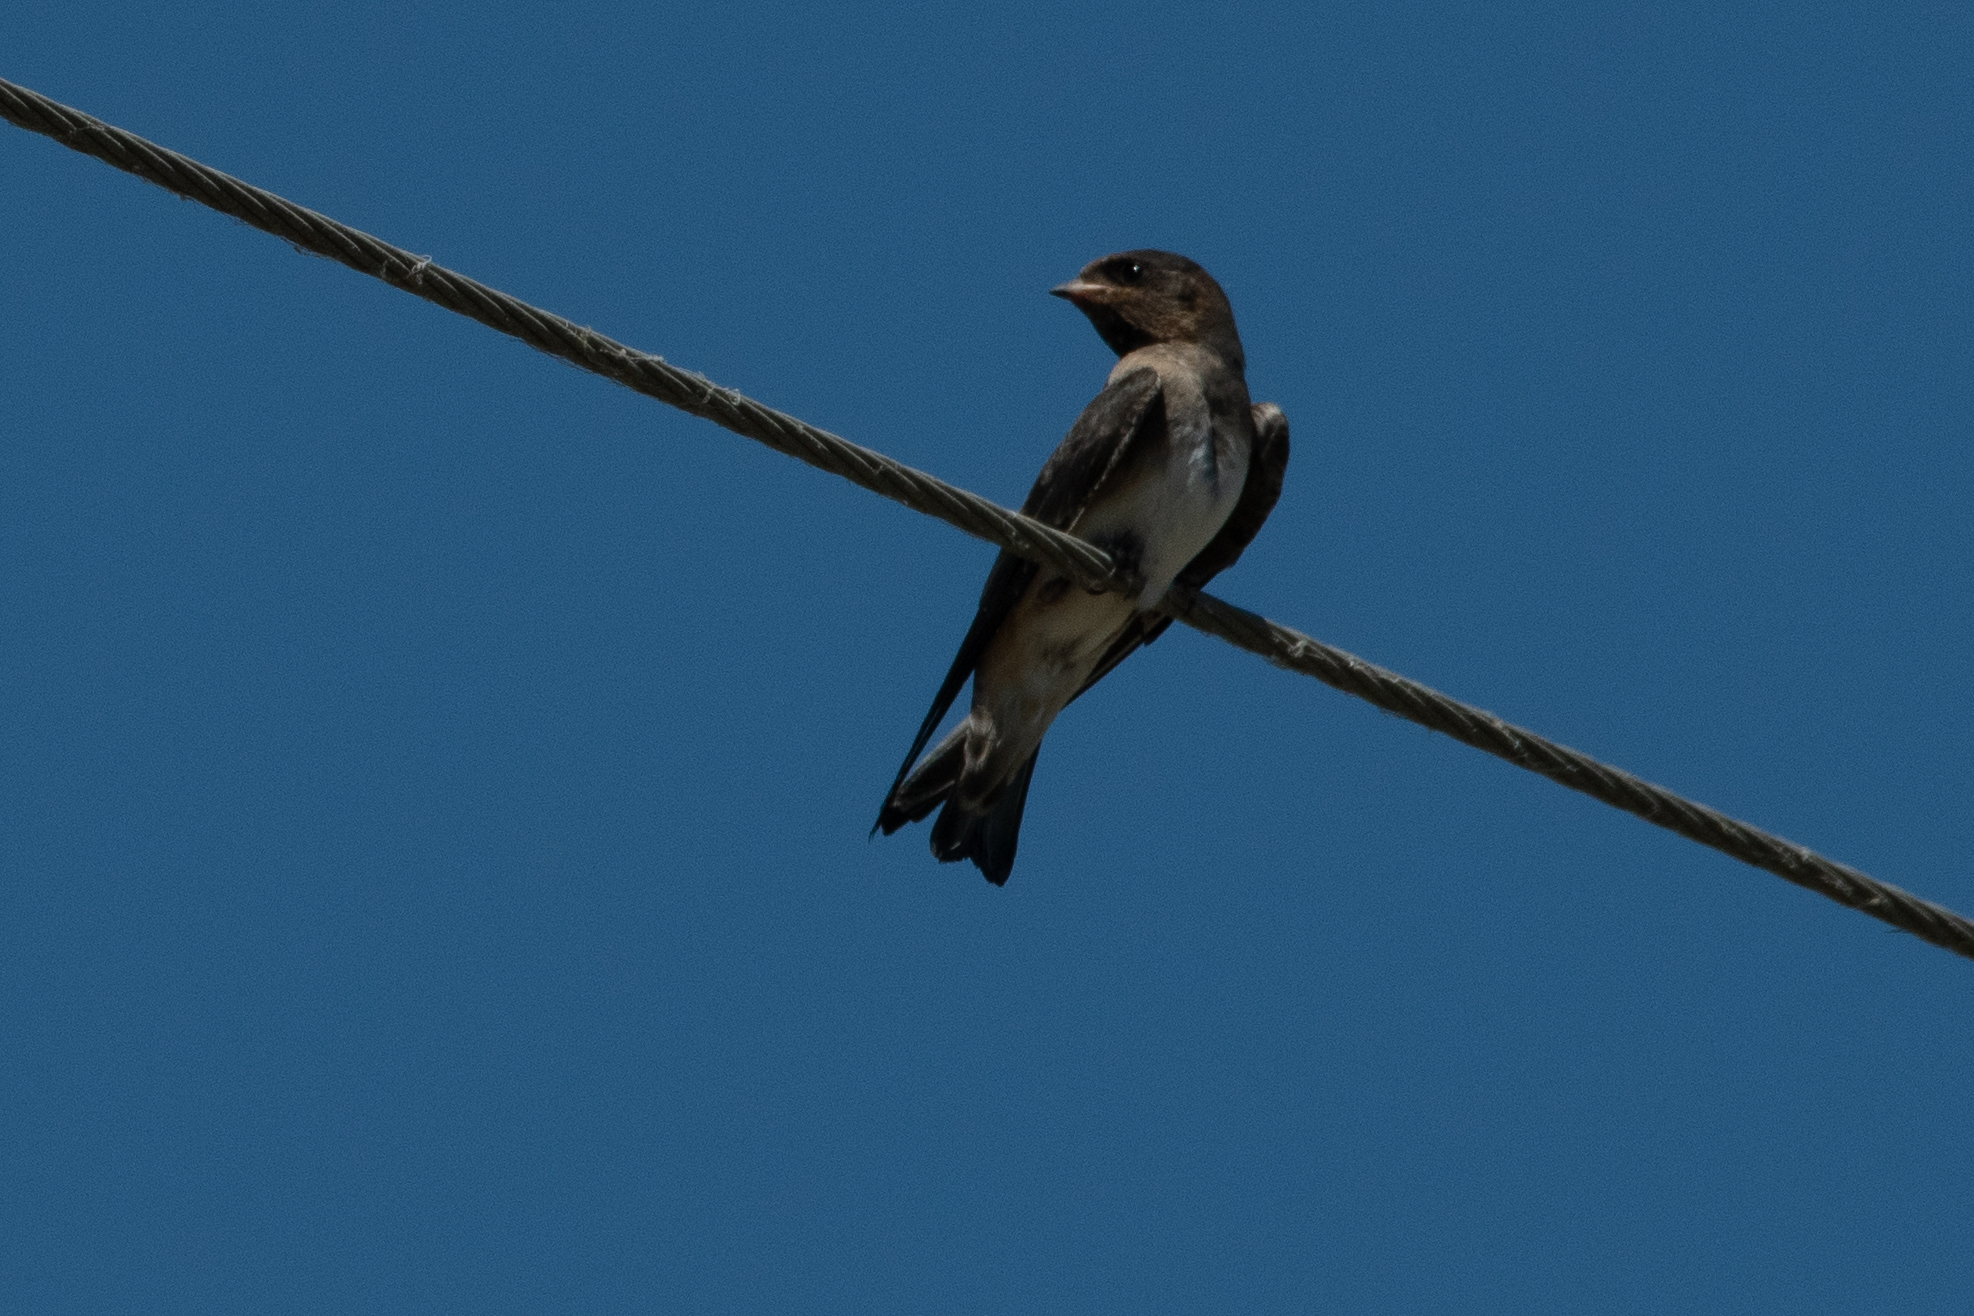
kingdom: Animalia
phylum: Chordata
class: Aves
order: Passeriformes
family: Hirundinidae
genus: Petrochelidon
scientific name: Petrochelidon pyrrhonota
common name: American cliff swallow
